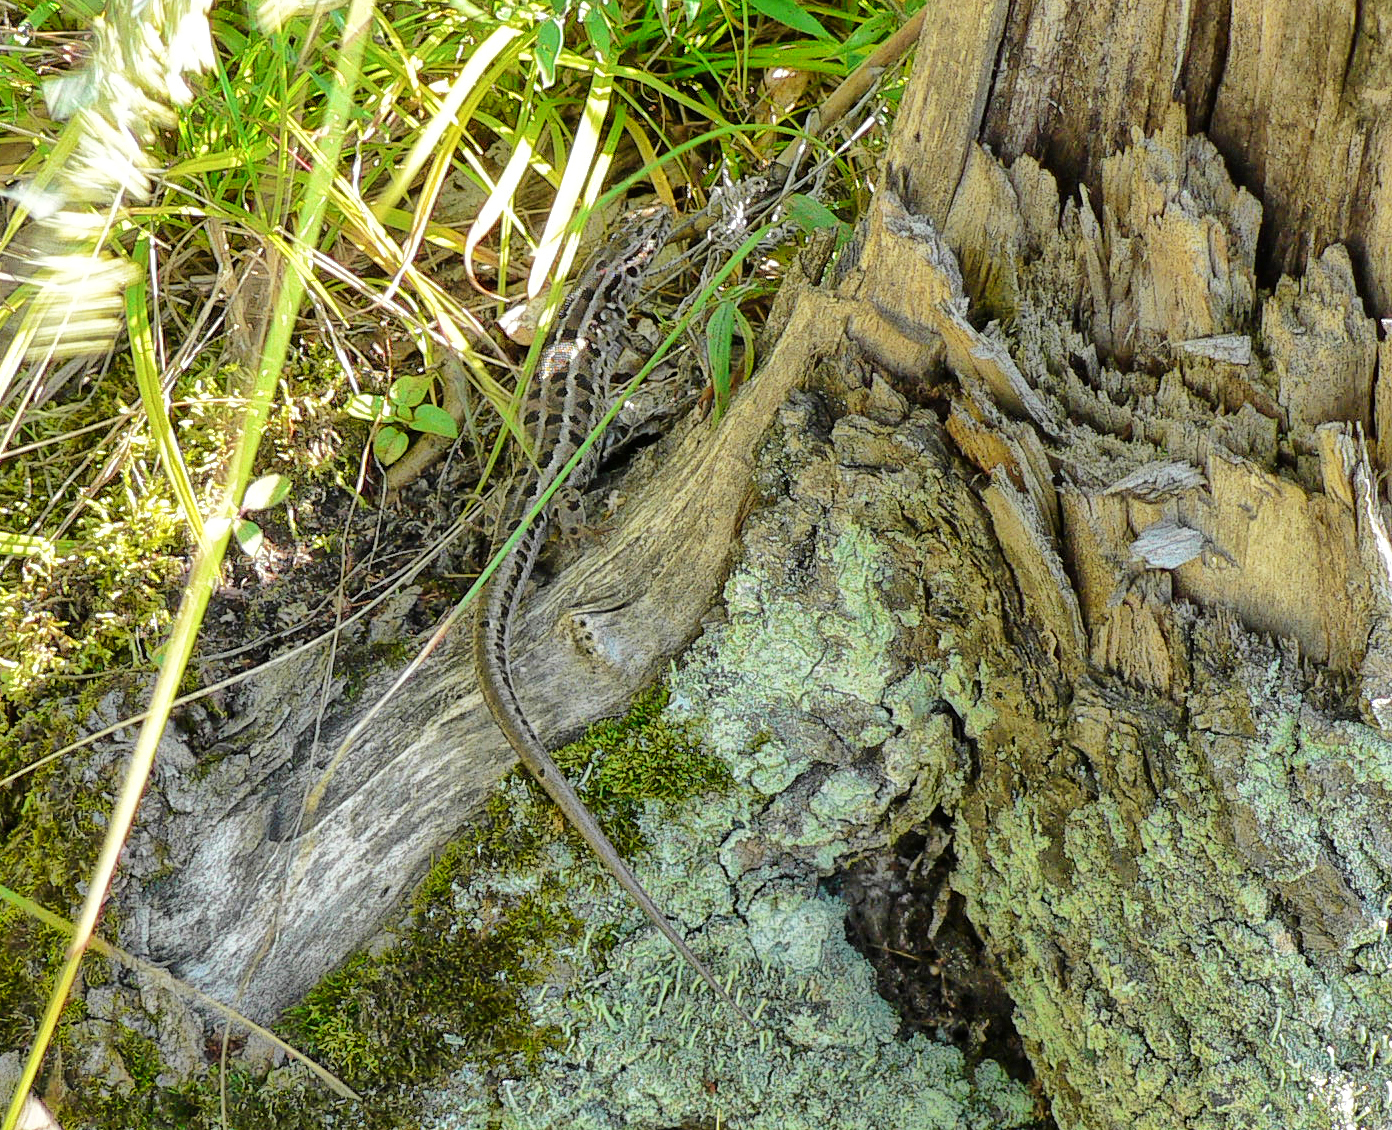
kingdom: Animalia
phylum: Chordata
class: Squamata
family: Lacertidae
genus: Lacerta
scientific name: Lacerta agilis
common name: Sand lizard
